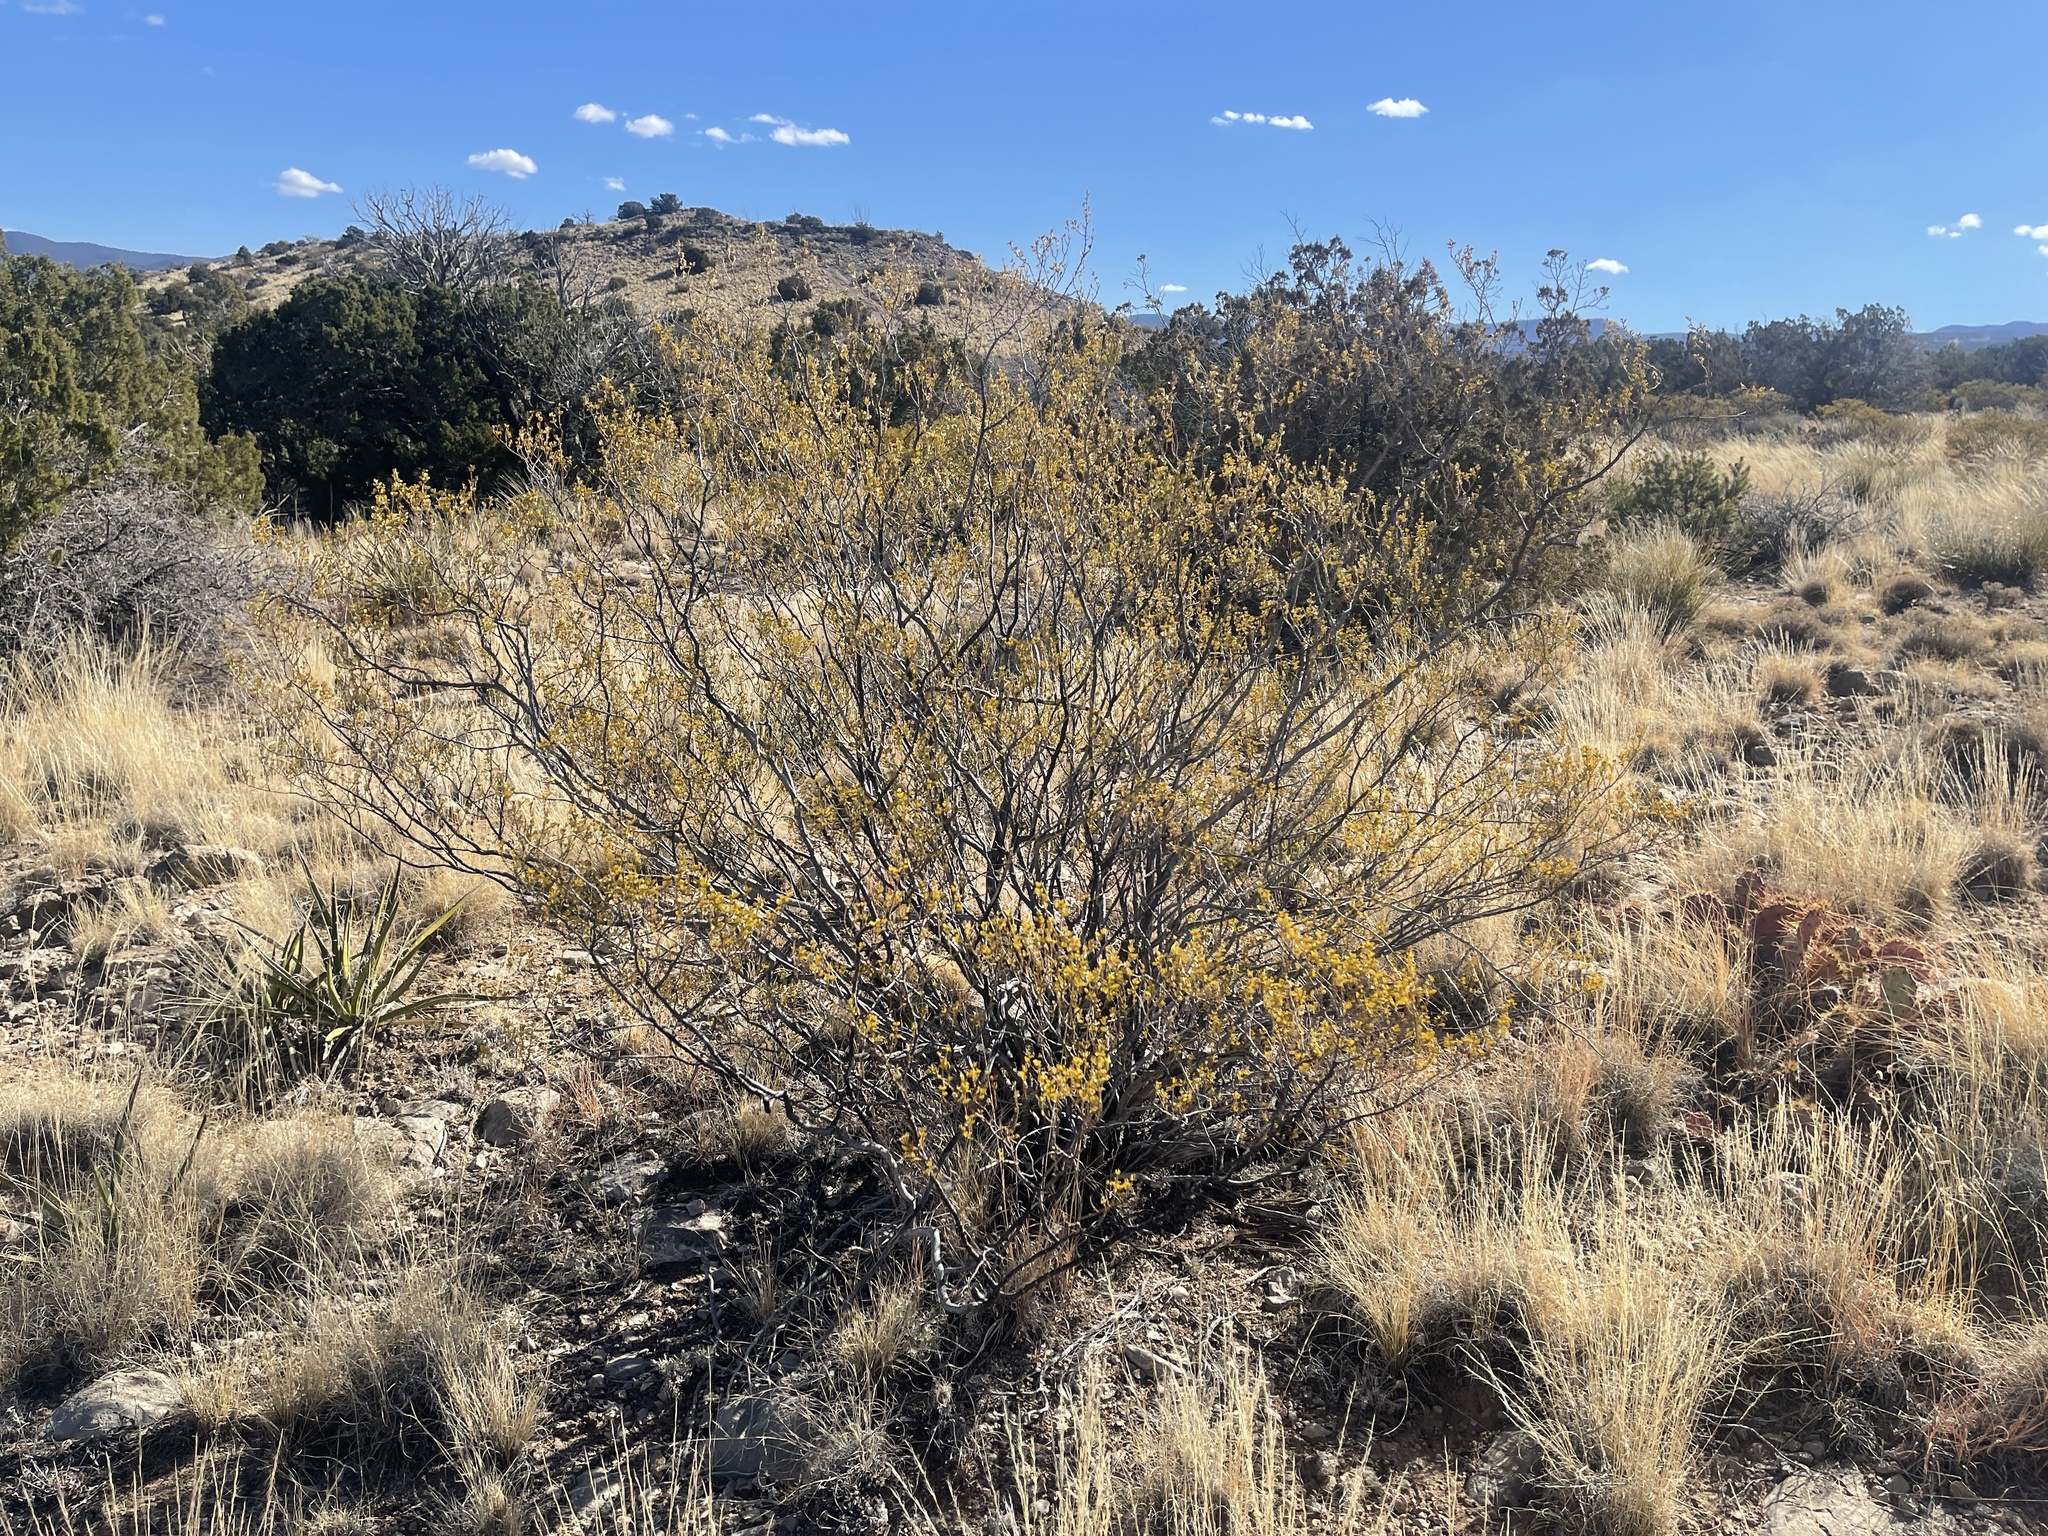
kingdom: Plantae
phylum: Tracheophyta
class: Magnoliopsida
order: Zygophyllales
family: Zygophyllaceae
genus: Larrea
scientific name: Larrea tridentata
